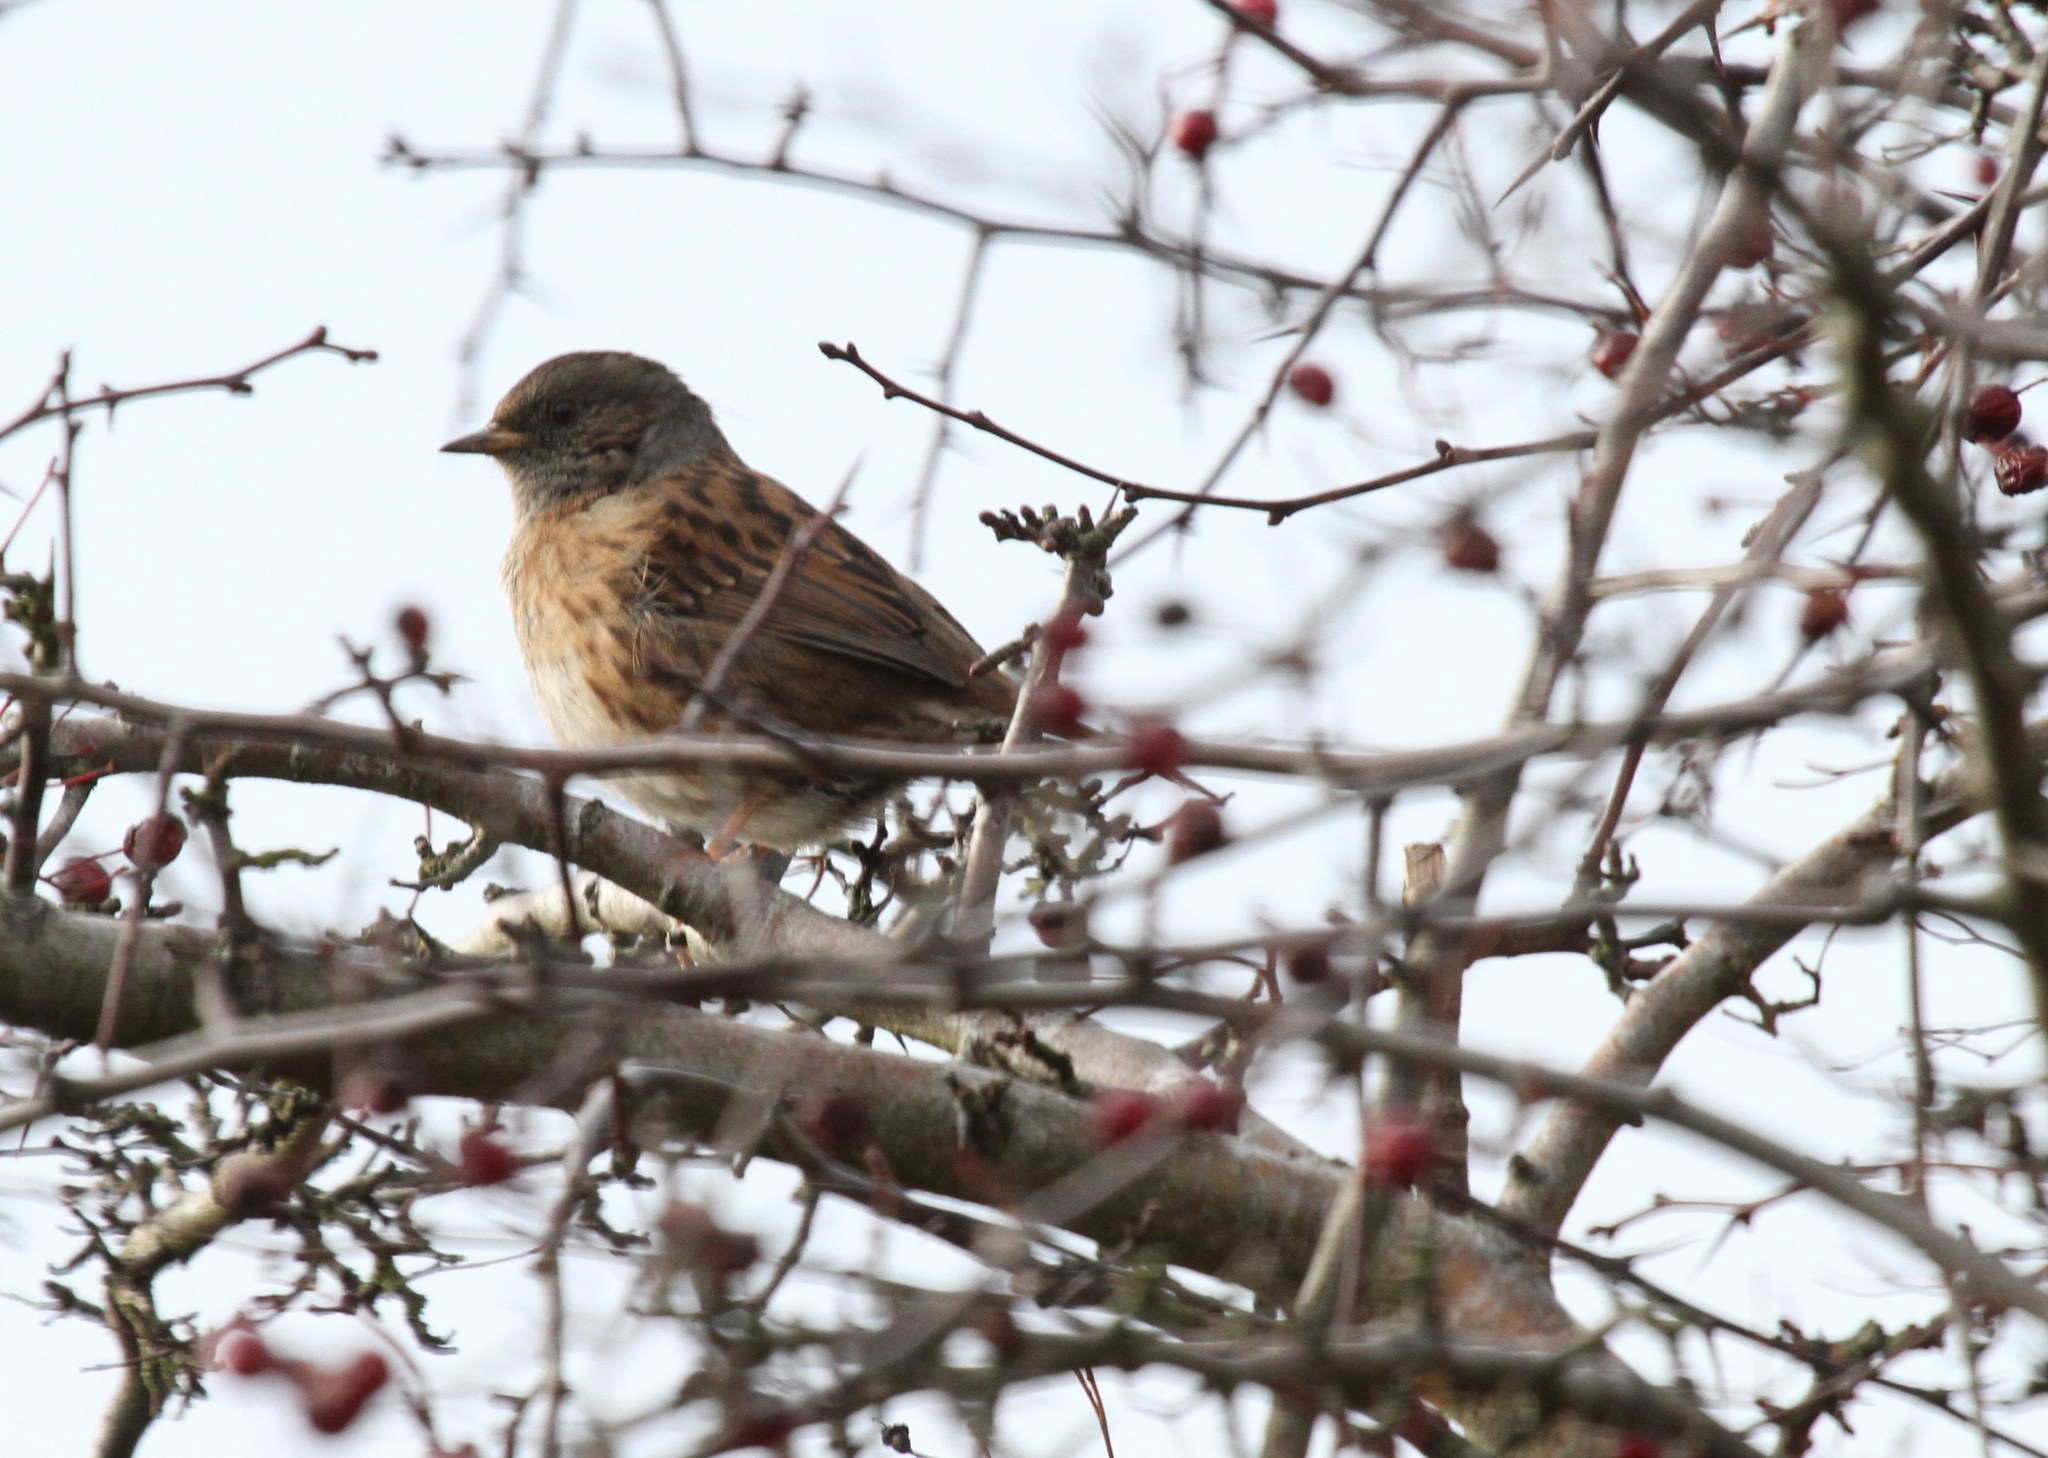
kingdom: Animalia
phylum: Chordata
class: Aves
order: Passeriformes
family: Prunellidae
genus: Prunella
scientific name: Prunella modularis
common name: Dunnock
